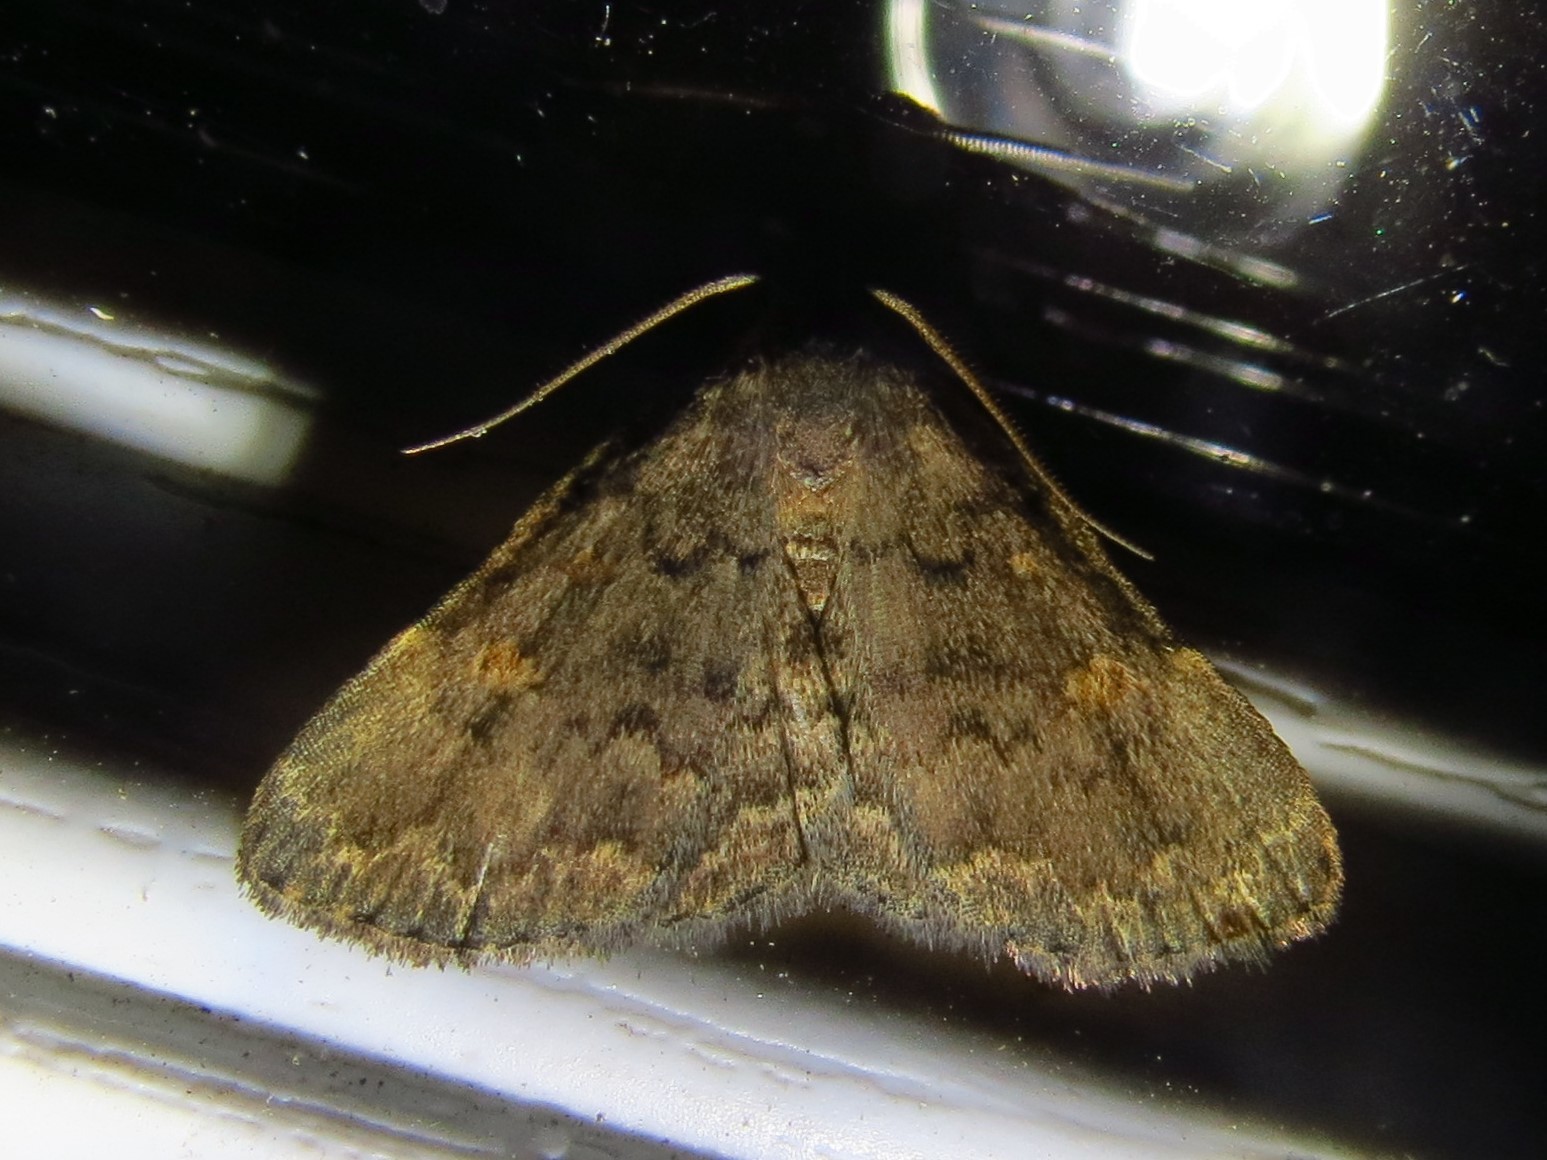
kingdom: Animalia
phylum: Arthropoda
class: Insecta
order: Lepidoptera
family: Erebidae
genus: Idia
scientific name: Idia aemula
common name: Common idia moth
